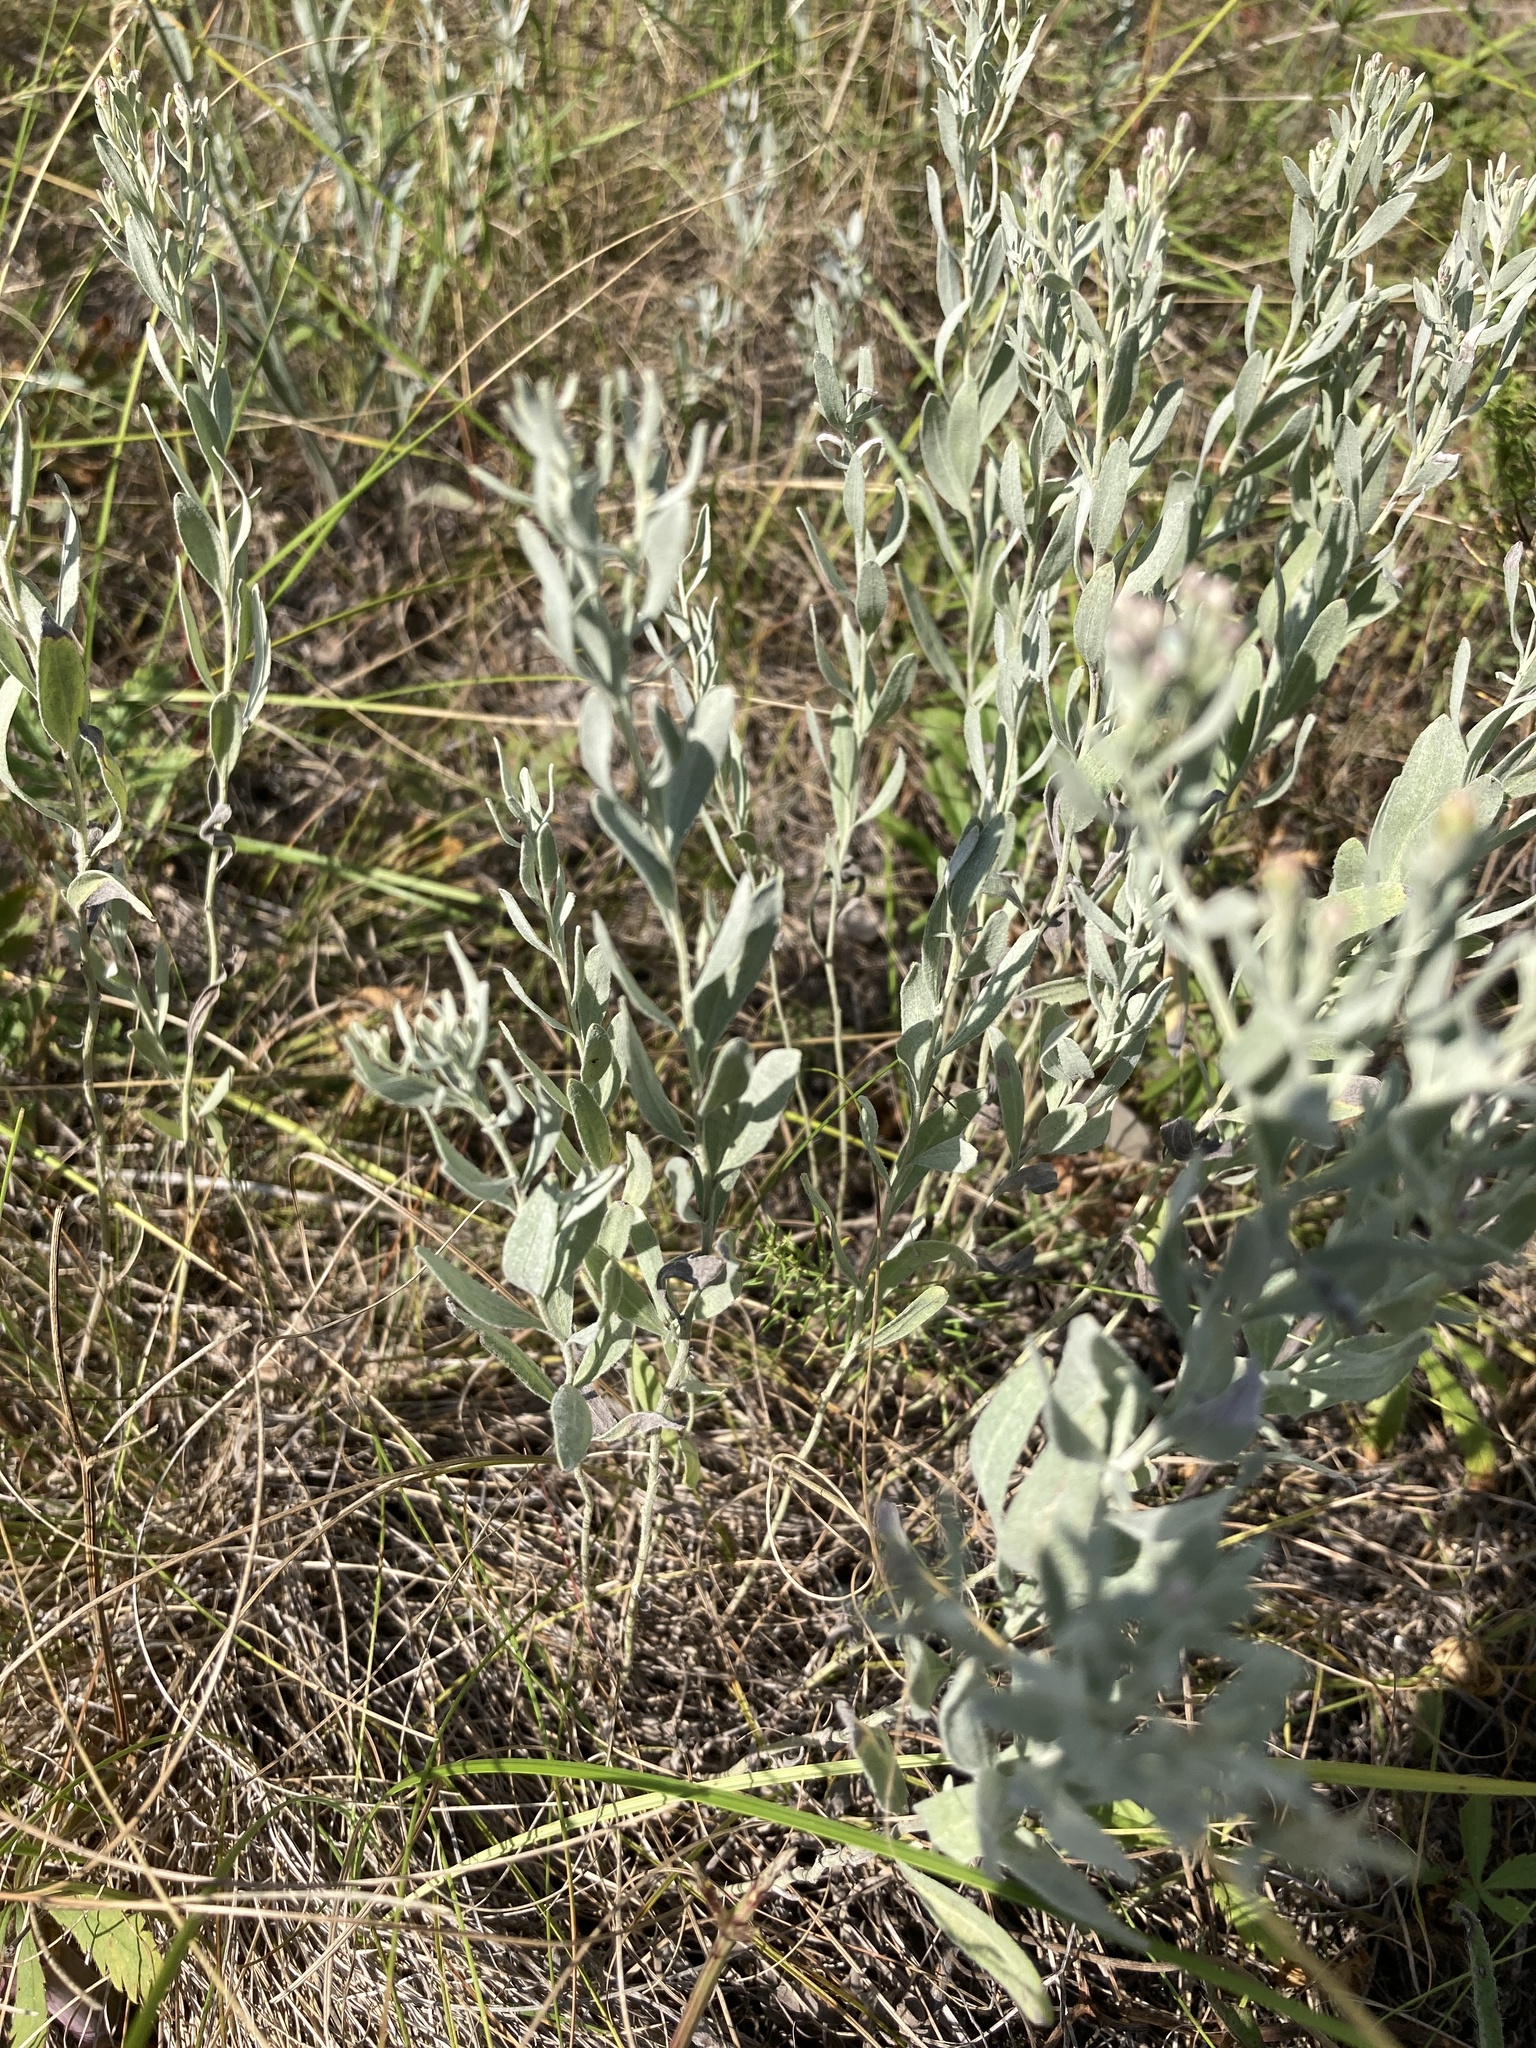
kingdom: Plantae
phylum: Tracheophyta
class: Magnoliopsida
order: Asterales
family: Asteraceae
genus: Galatella
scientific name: Galatella villosa
